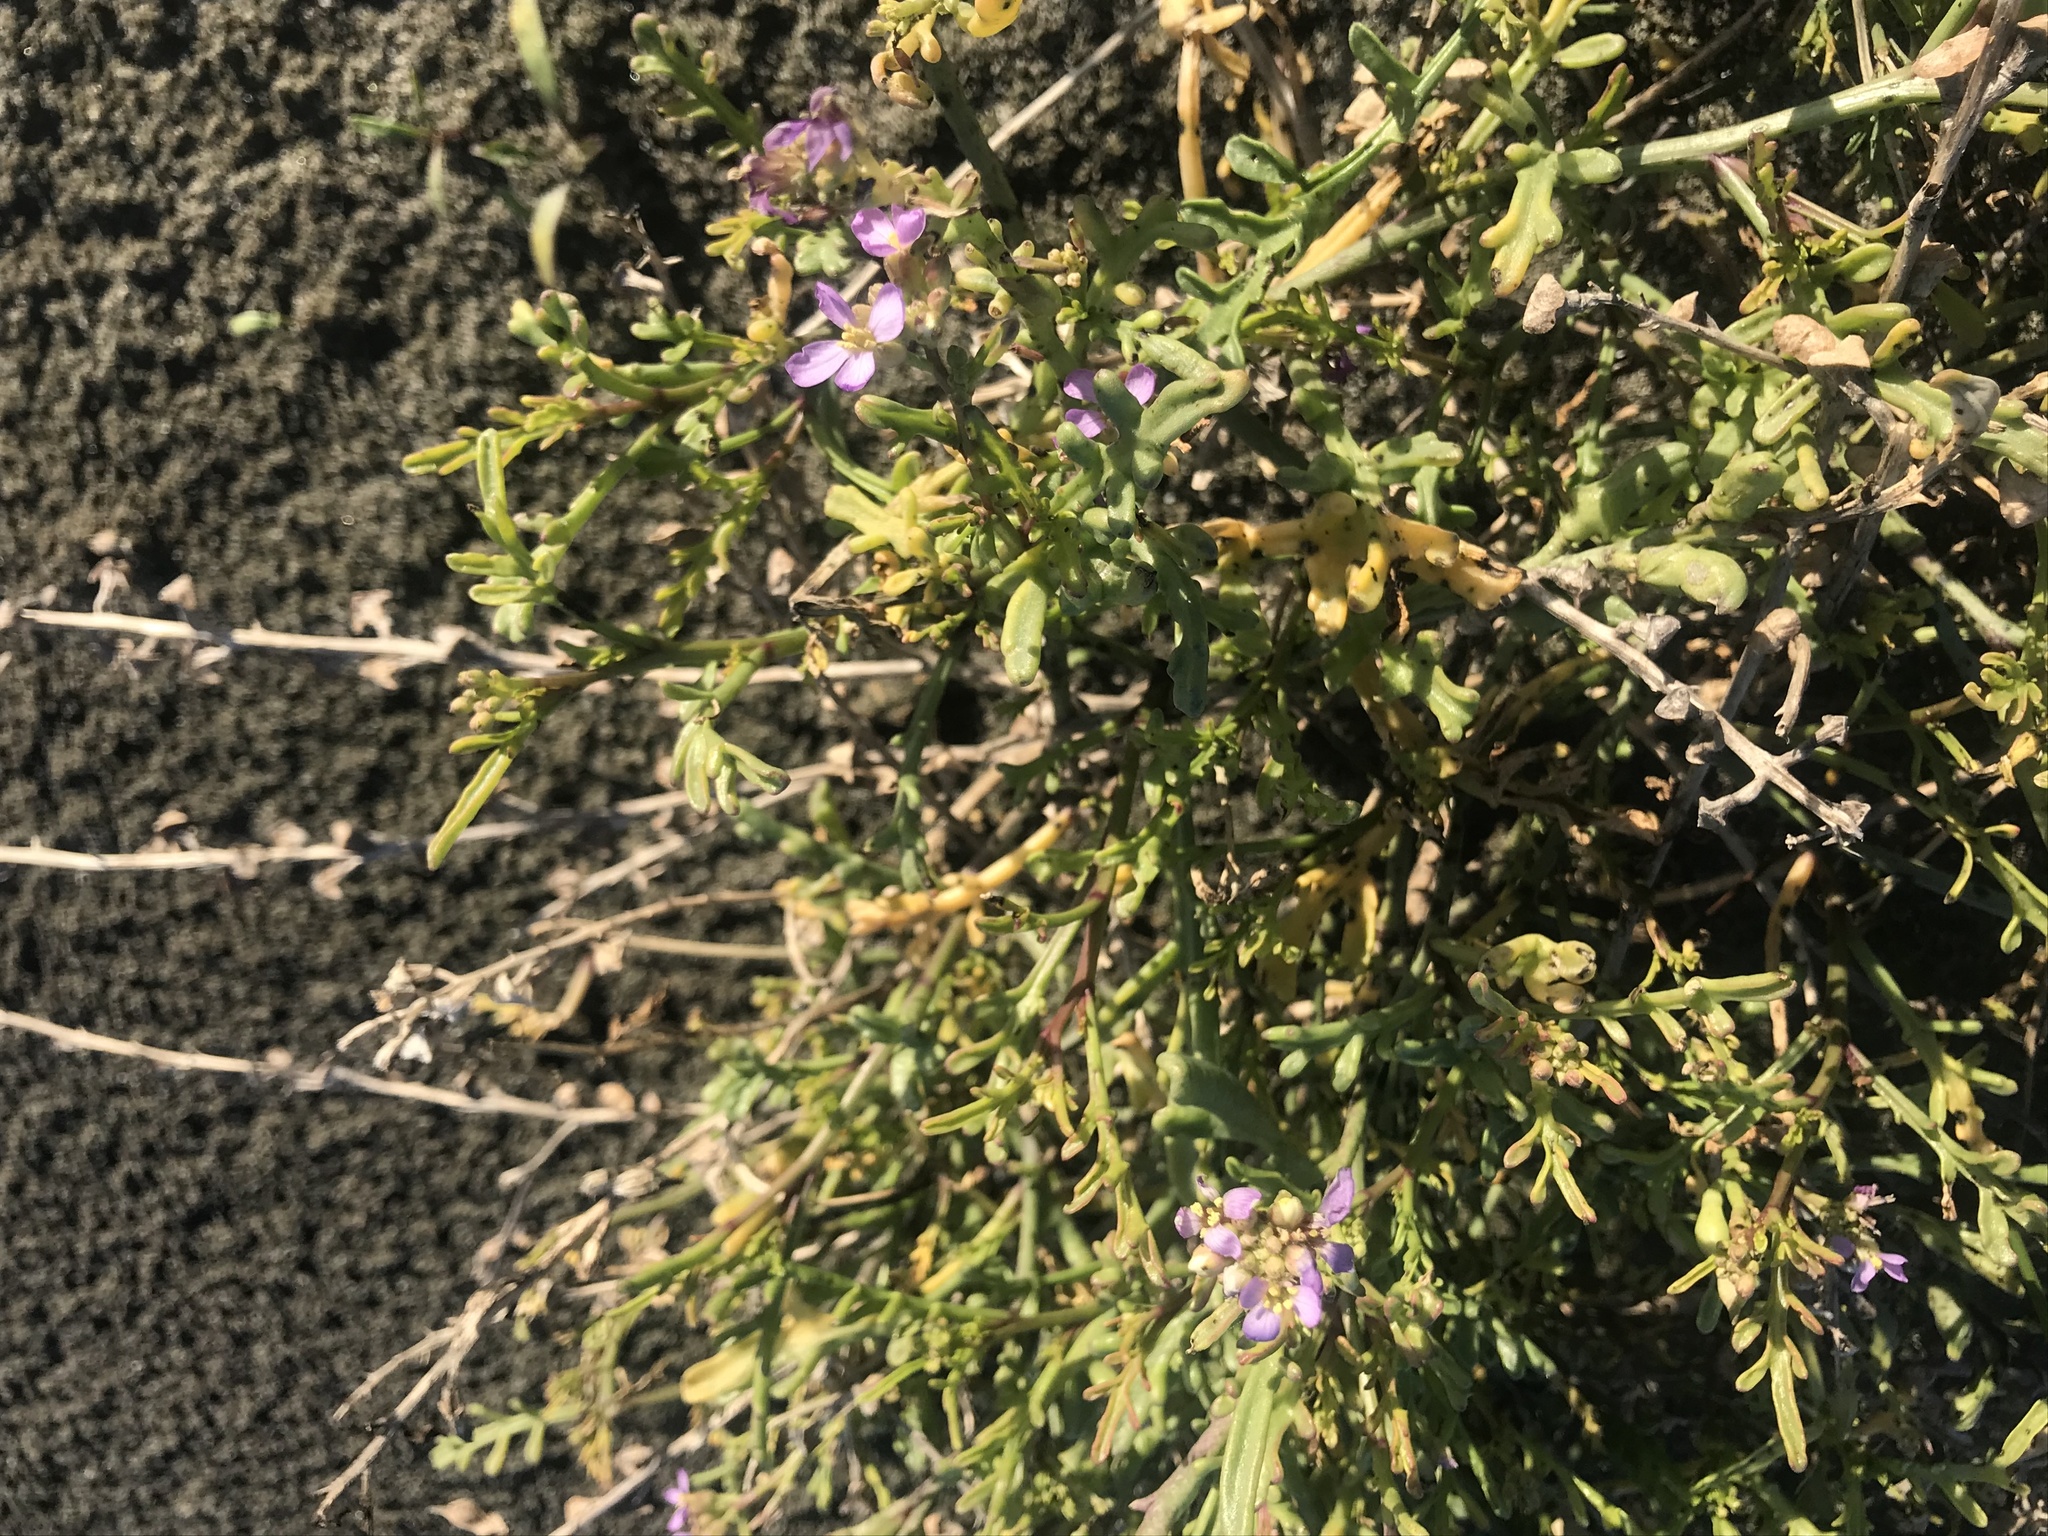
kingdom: Plantae
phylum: Tracheophyta
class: Magnoliopsida
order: Brassicales
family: Brassicaceae
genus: Cakile
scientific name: Cakile maritima
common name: Sea rocket
